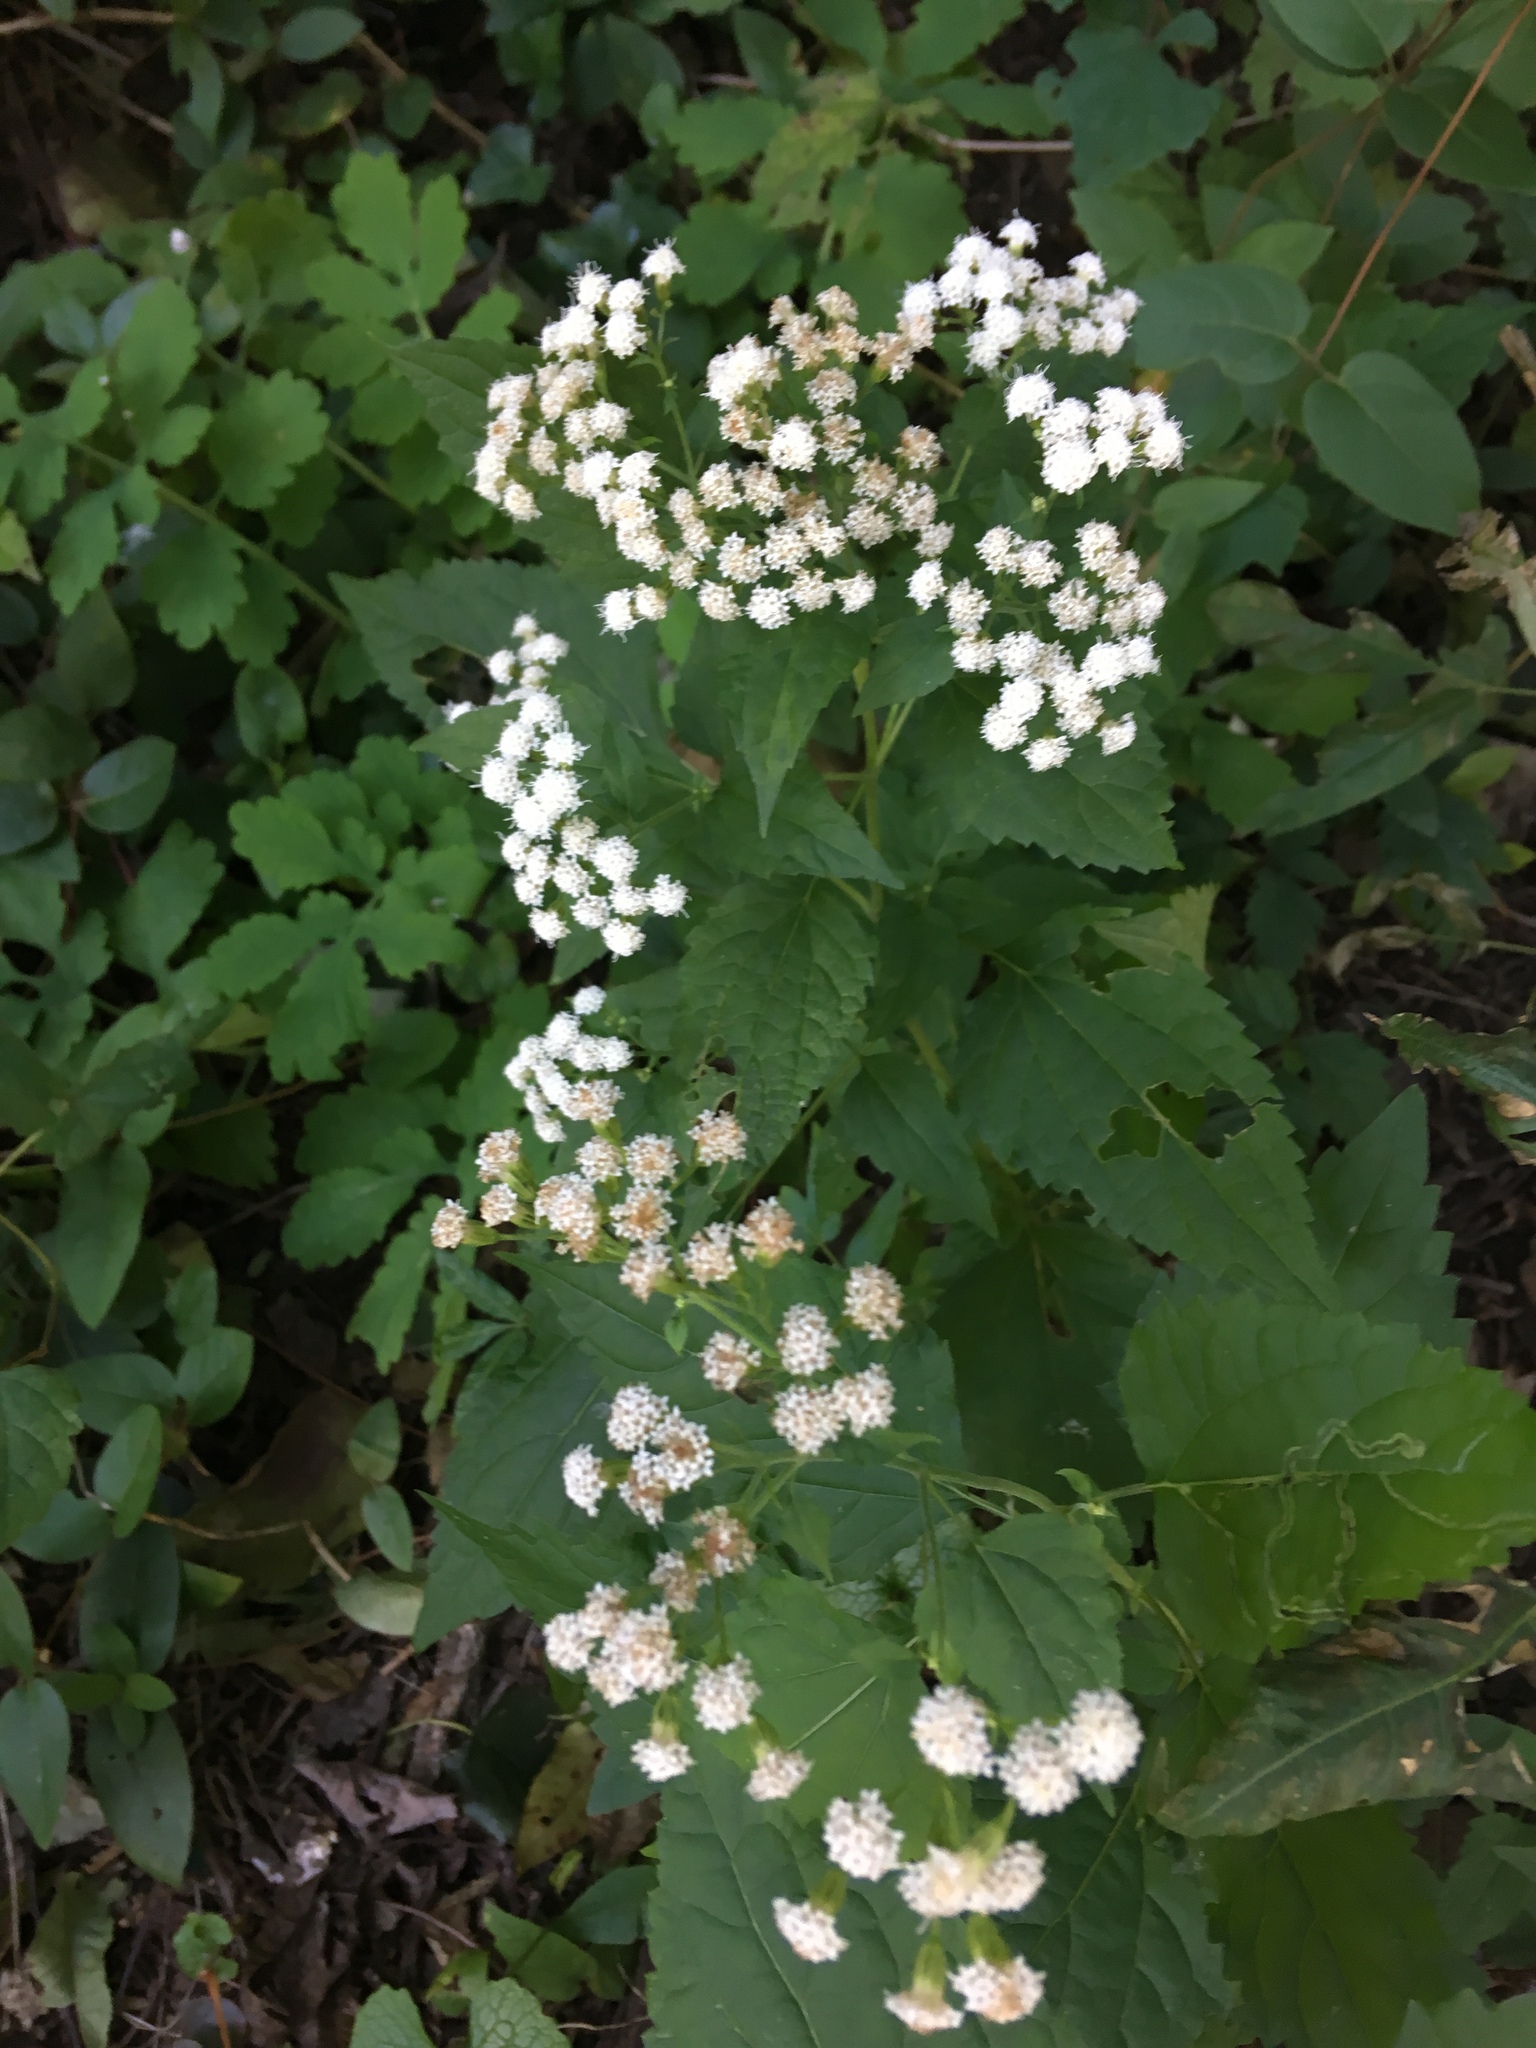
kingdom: Plantae
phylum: Tracheophyta
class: Magnoliopsida
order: Asterales
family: Asteraceae
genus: Ageratina
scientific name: Ageratina altissima
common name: White snakeroot
